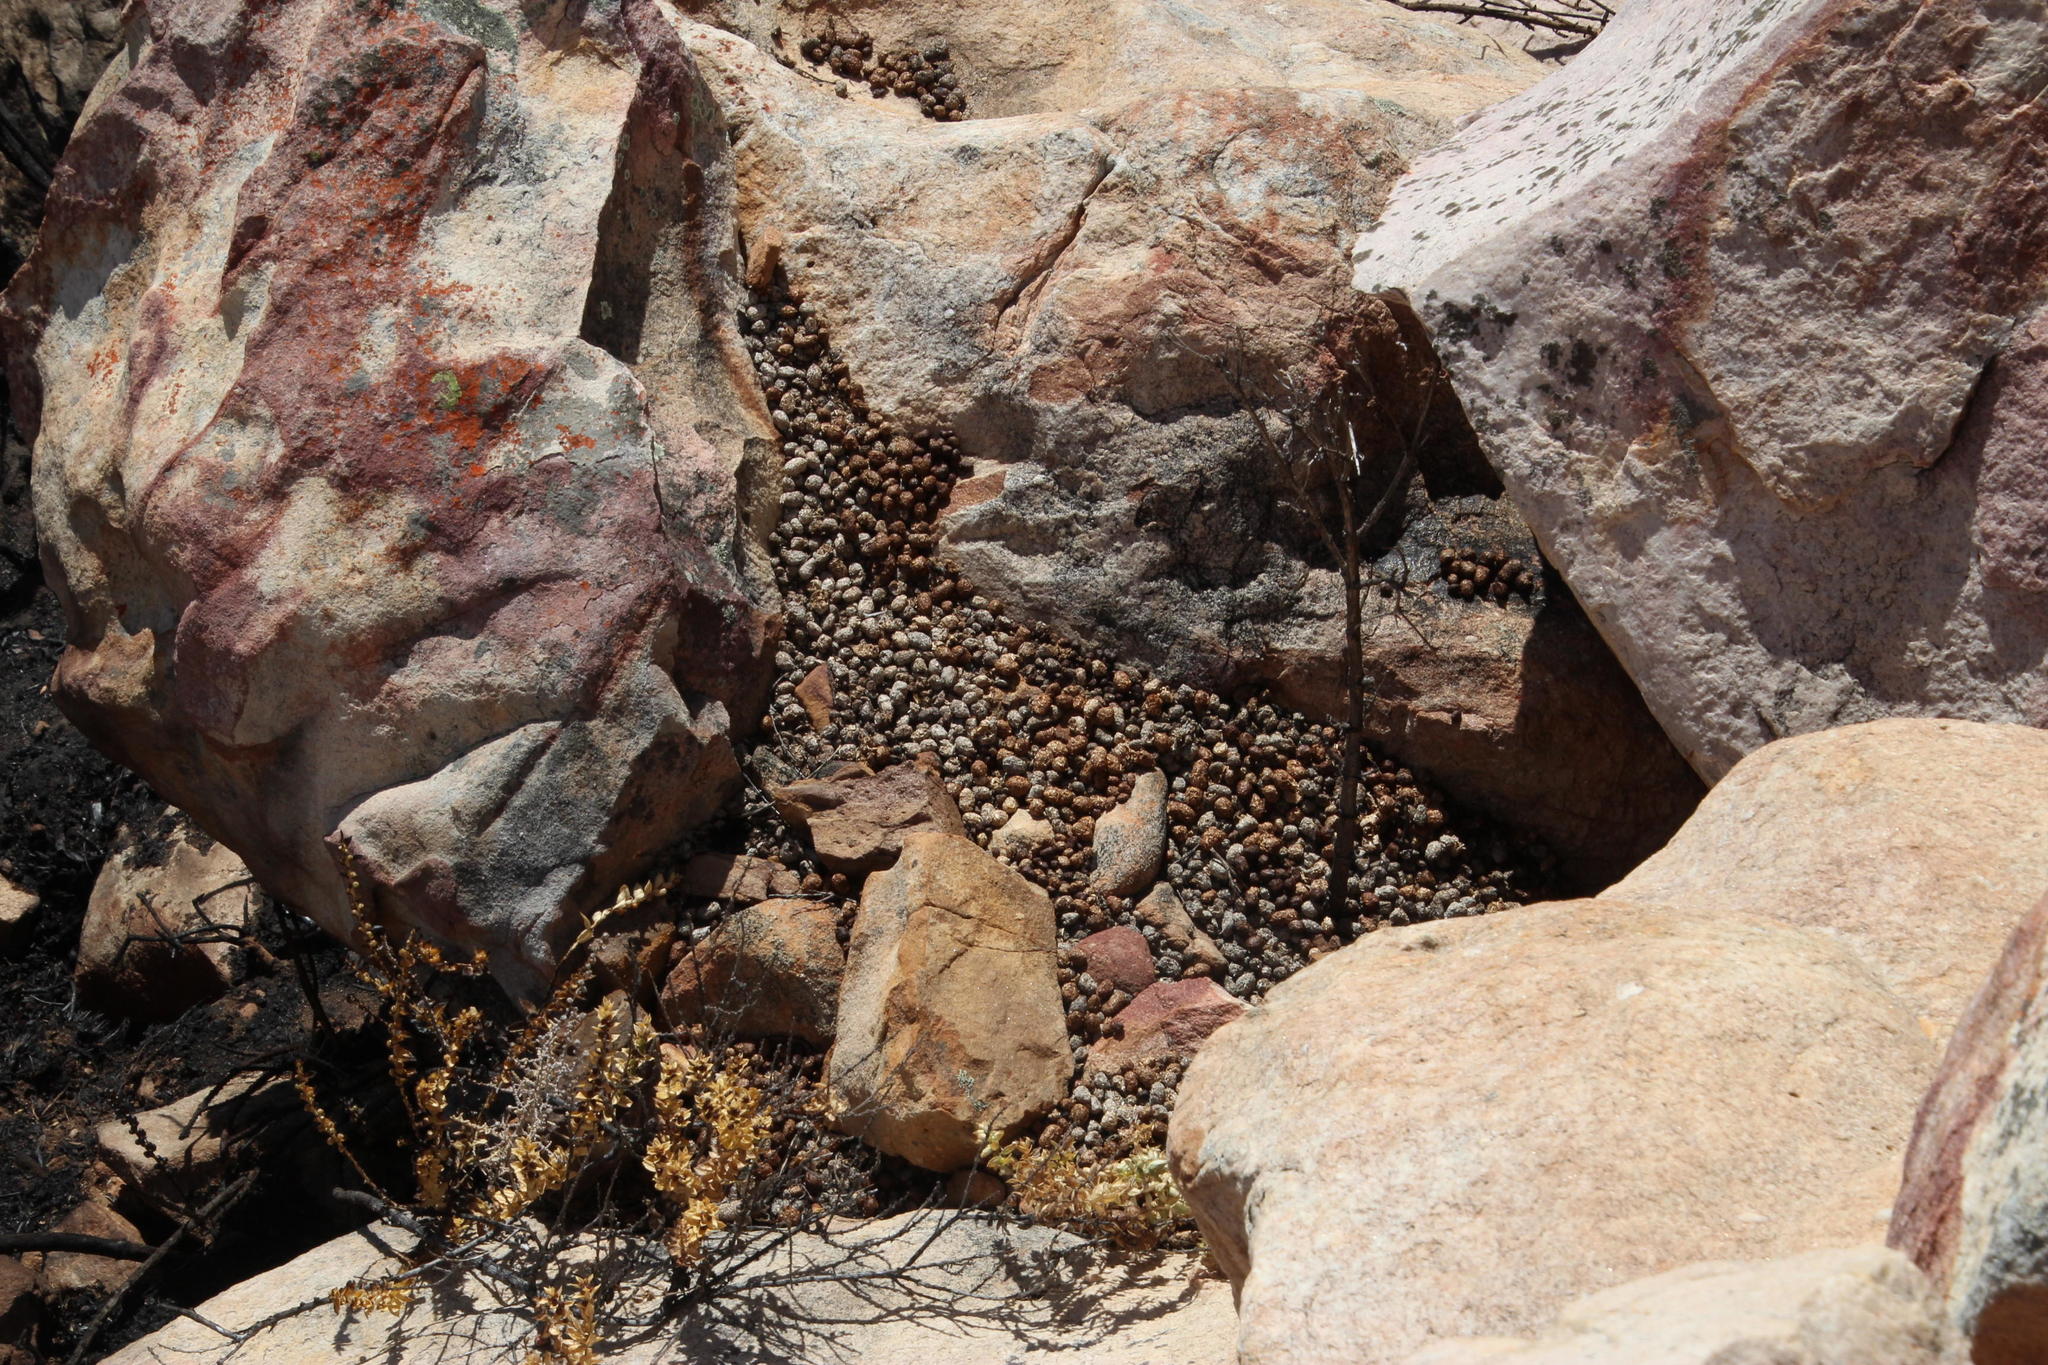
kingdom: Animalia
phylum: Chordata
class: Mammalia
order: Hyracoidea
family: Procaviidae
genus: Procavia
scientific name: Procavia capensis
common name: Rock hyrax
